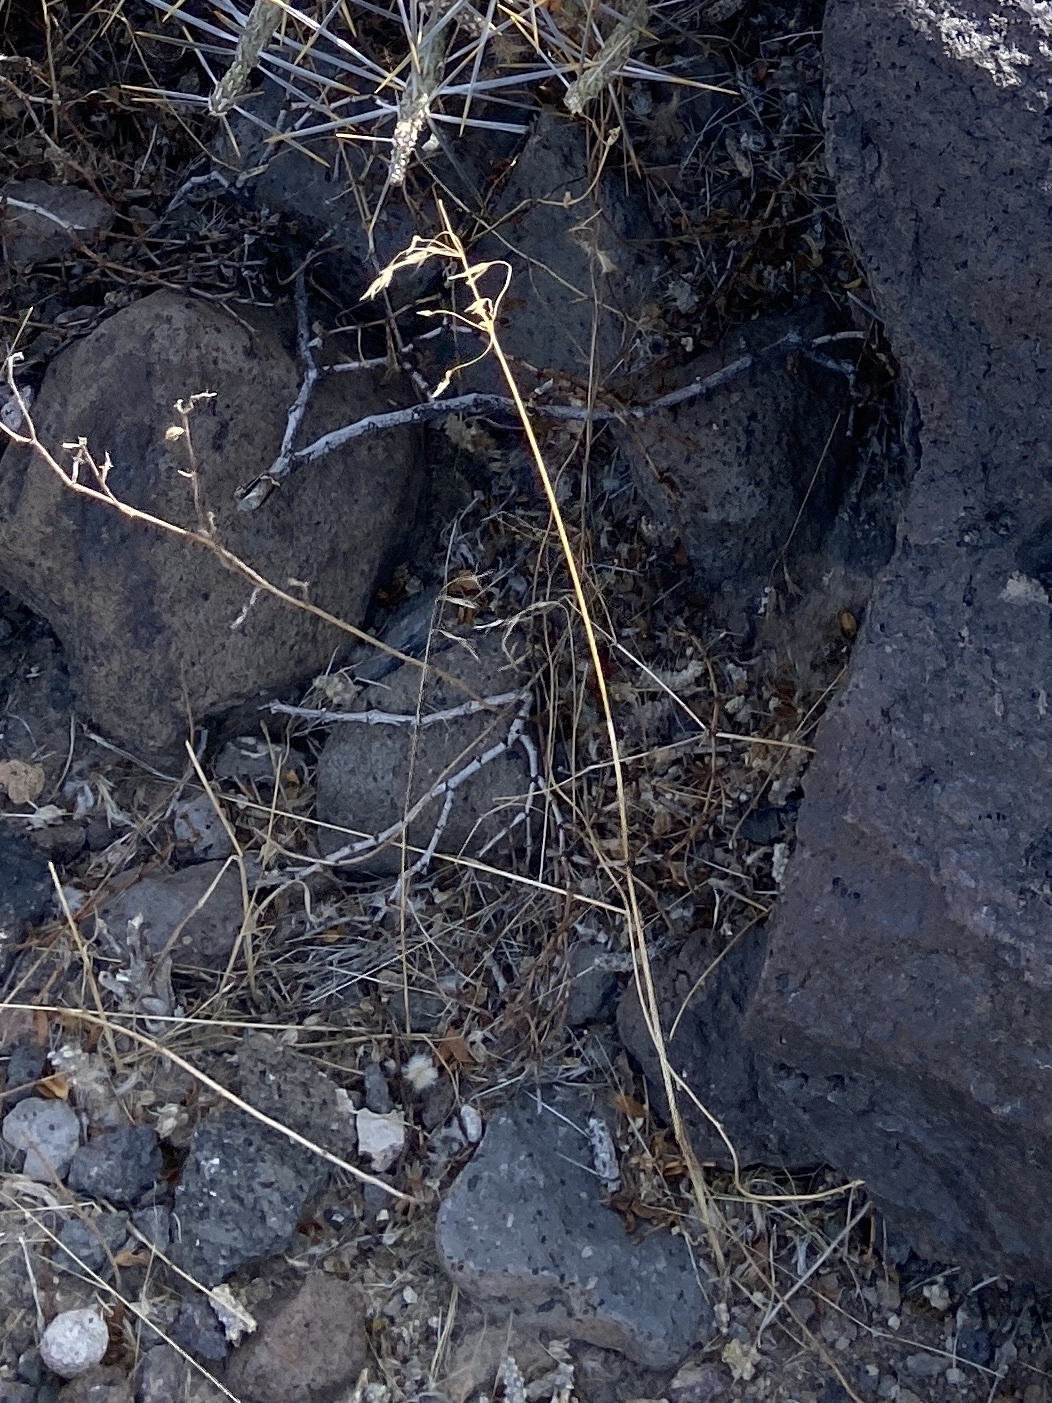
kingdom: Plantae
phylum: Tracheophyta
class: Liliopsida
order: Poales
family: Poaceae
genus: Bromus
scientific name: Bromus tectorum
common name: Cheatgrass
